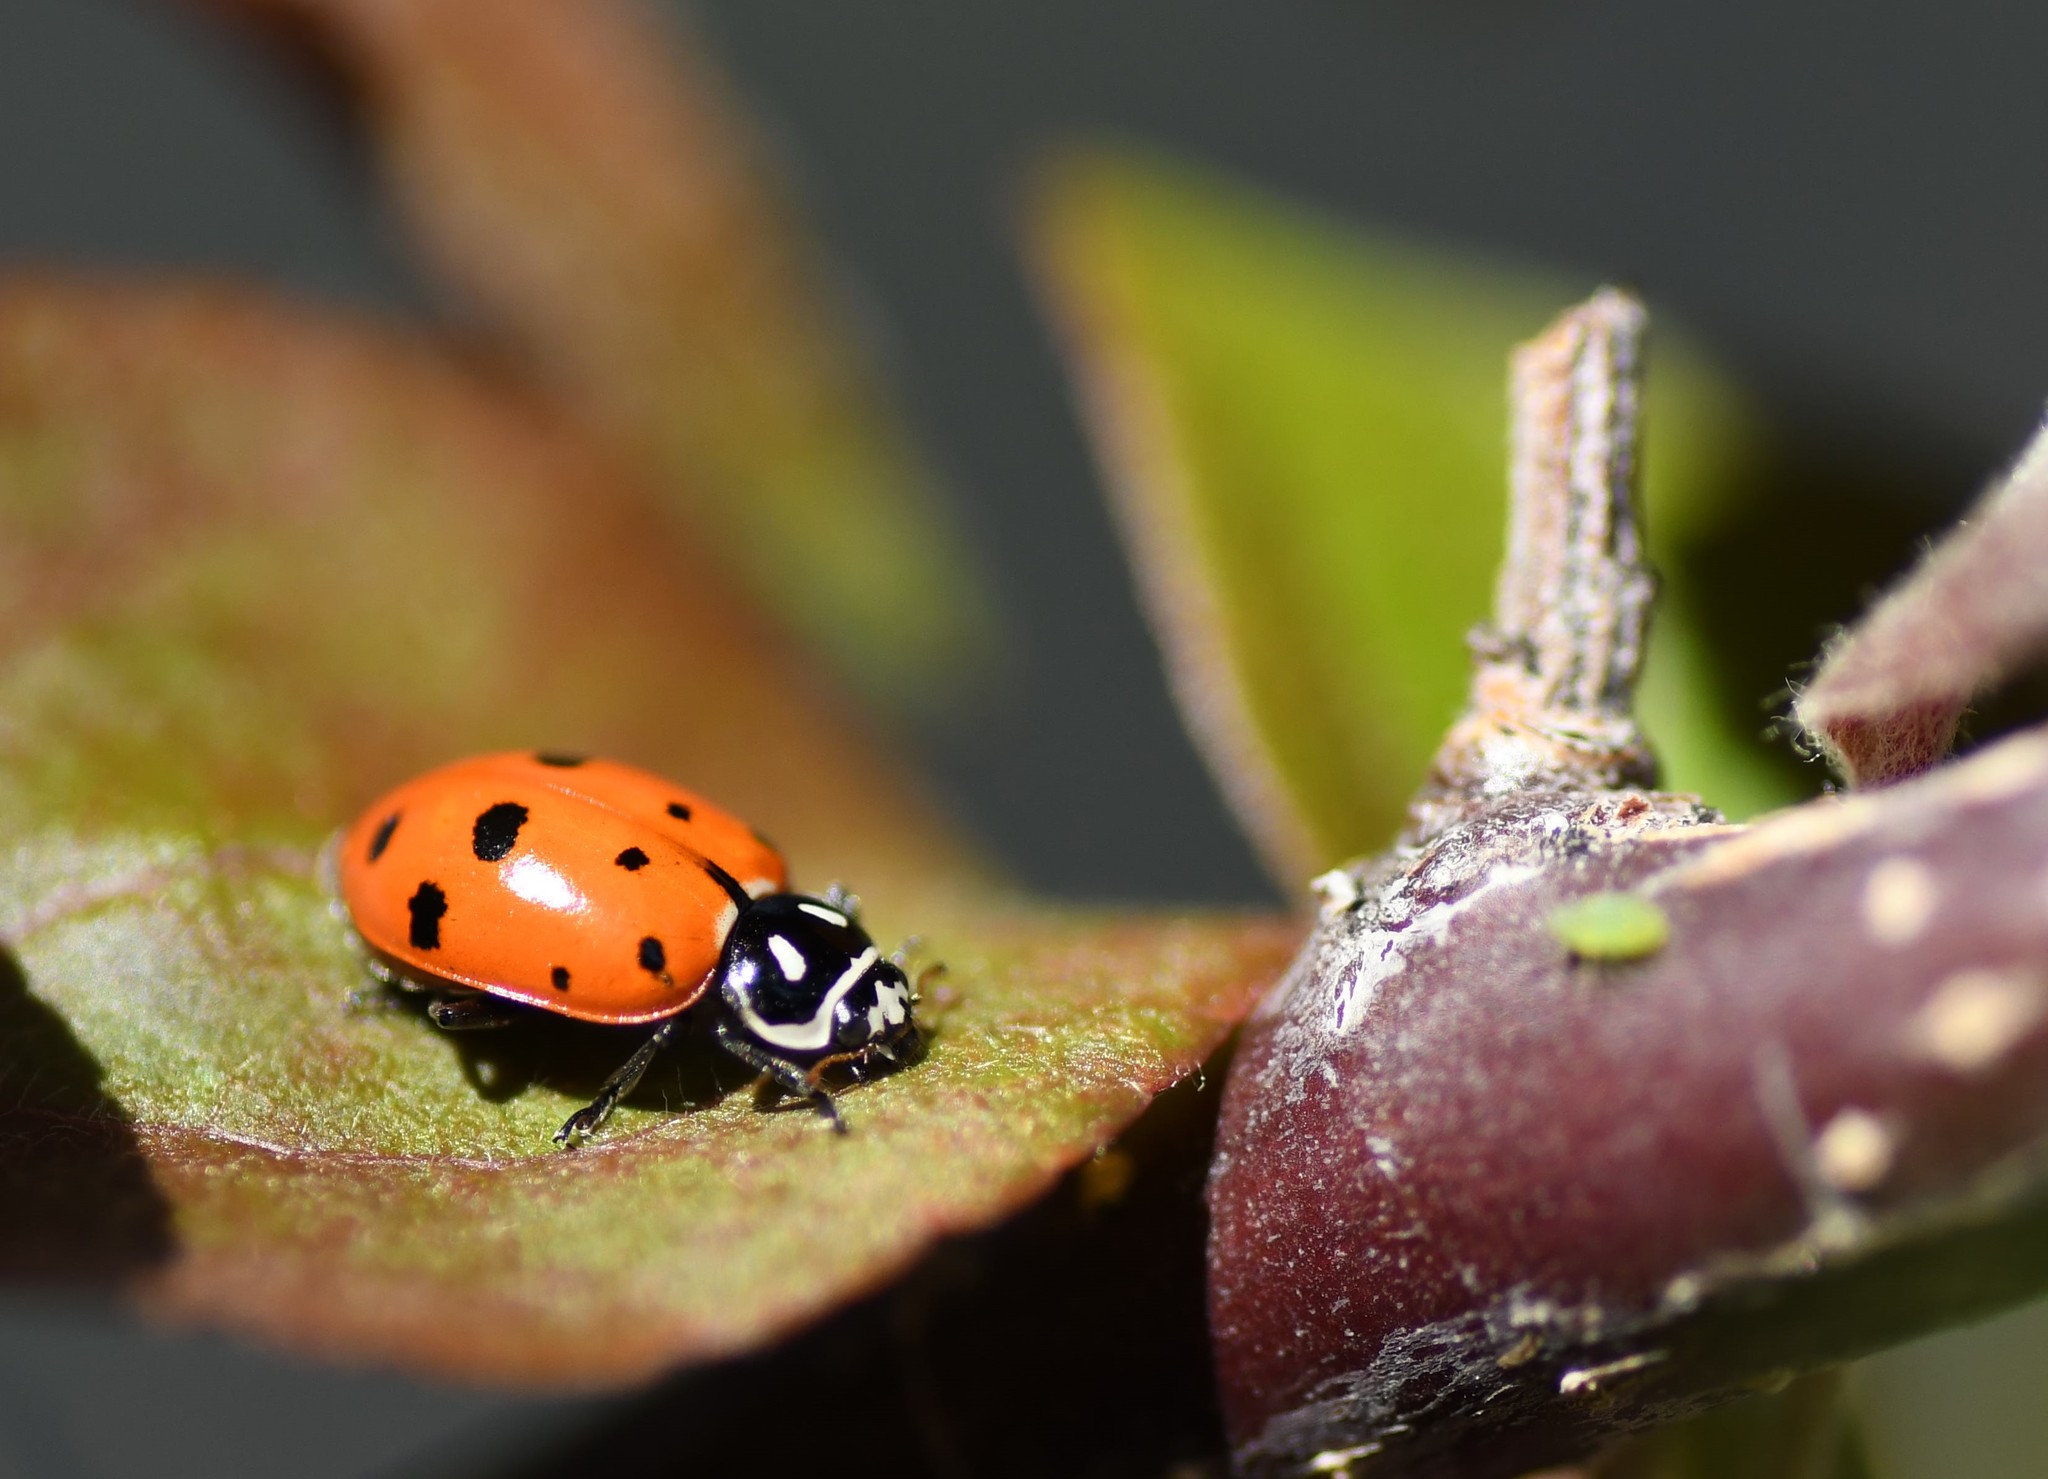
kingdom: Animalia
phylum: Arthropoda
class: Insecta
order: Coleoptera
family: Coccinellidae
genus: Hippodamia
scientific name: Hippodamia convergens
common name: Convergent lady beetle
